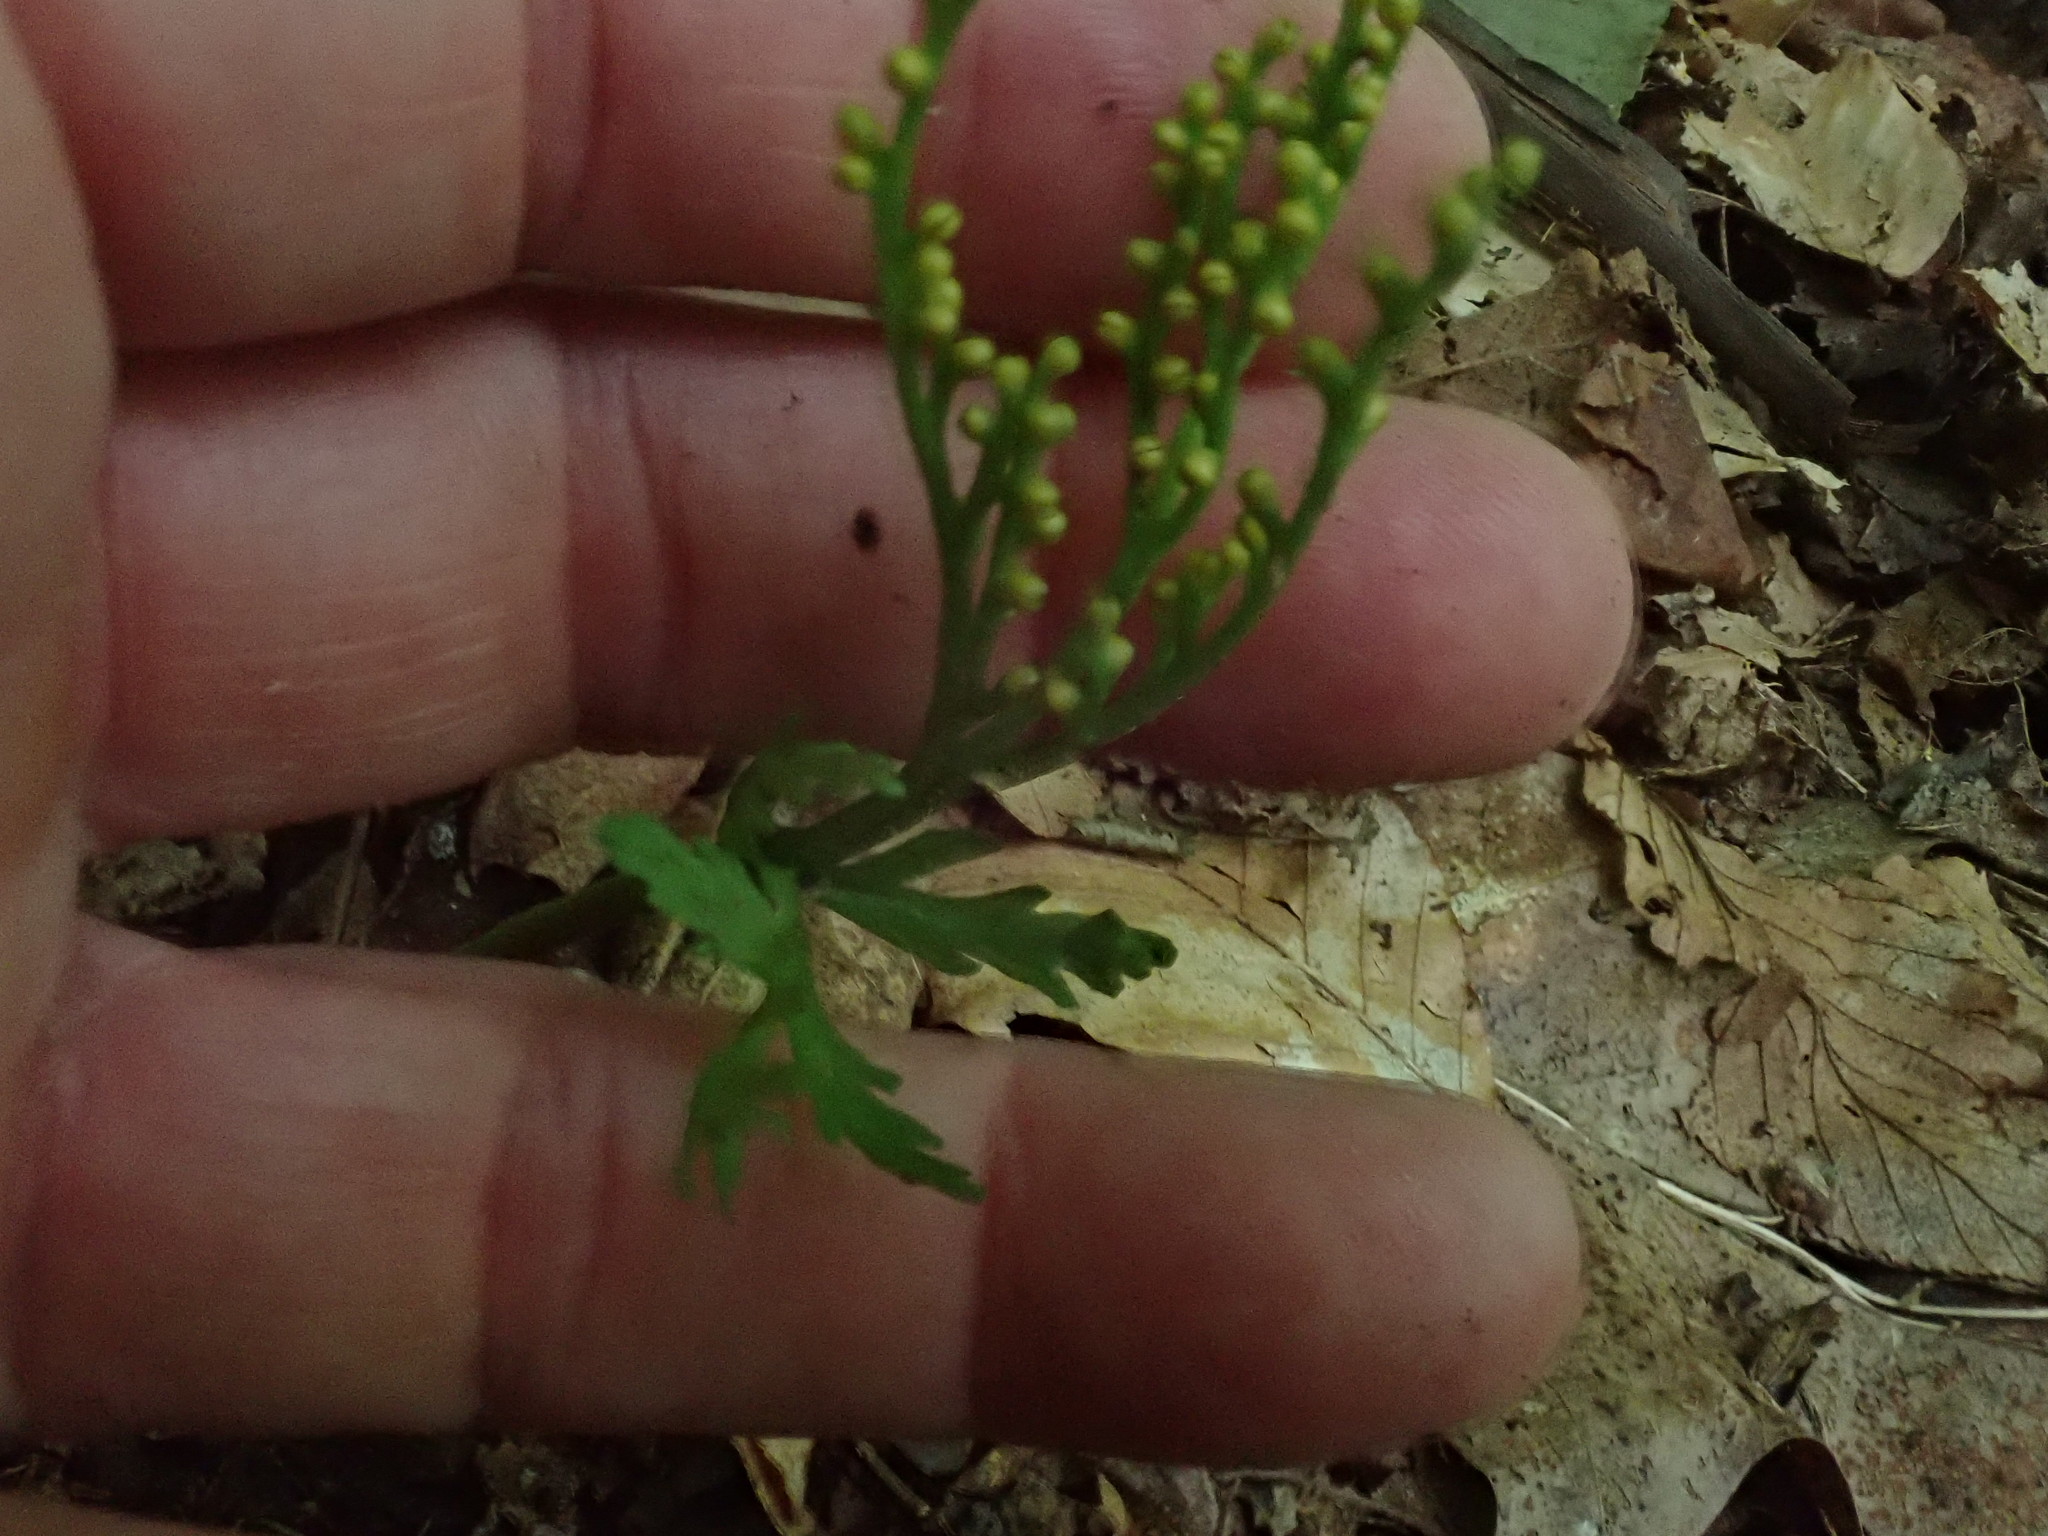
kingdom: Plantae
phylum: Tracheophyta
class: Polypodiopsida
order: Ophioglossales
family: Ophioglossaceae
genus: Botrychium
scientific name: Botrychium angustisegmentum
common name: Narrow triangle moonwort
